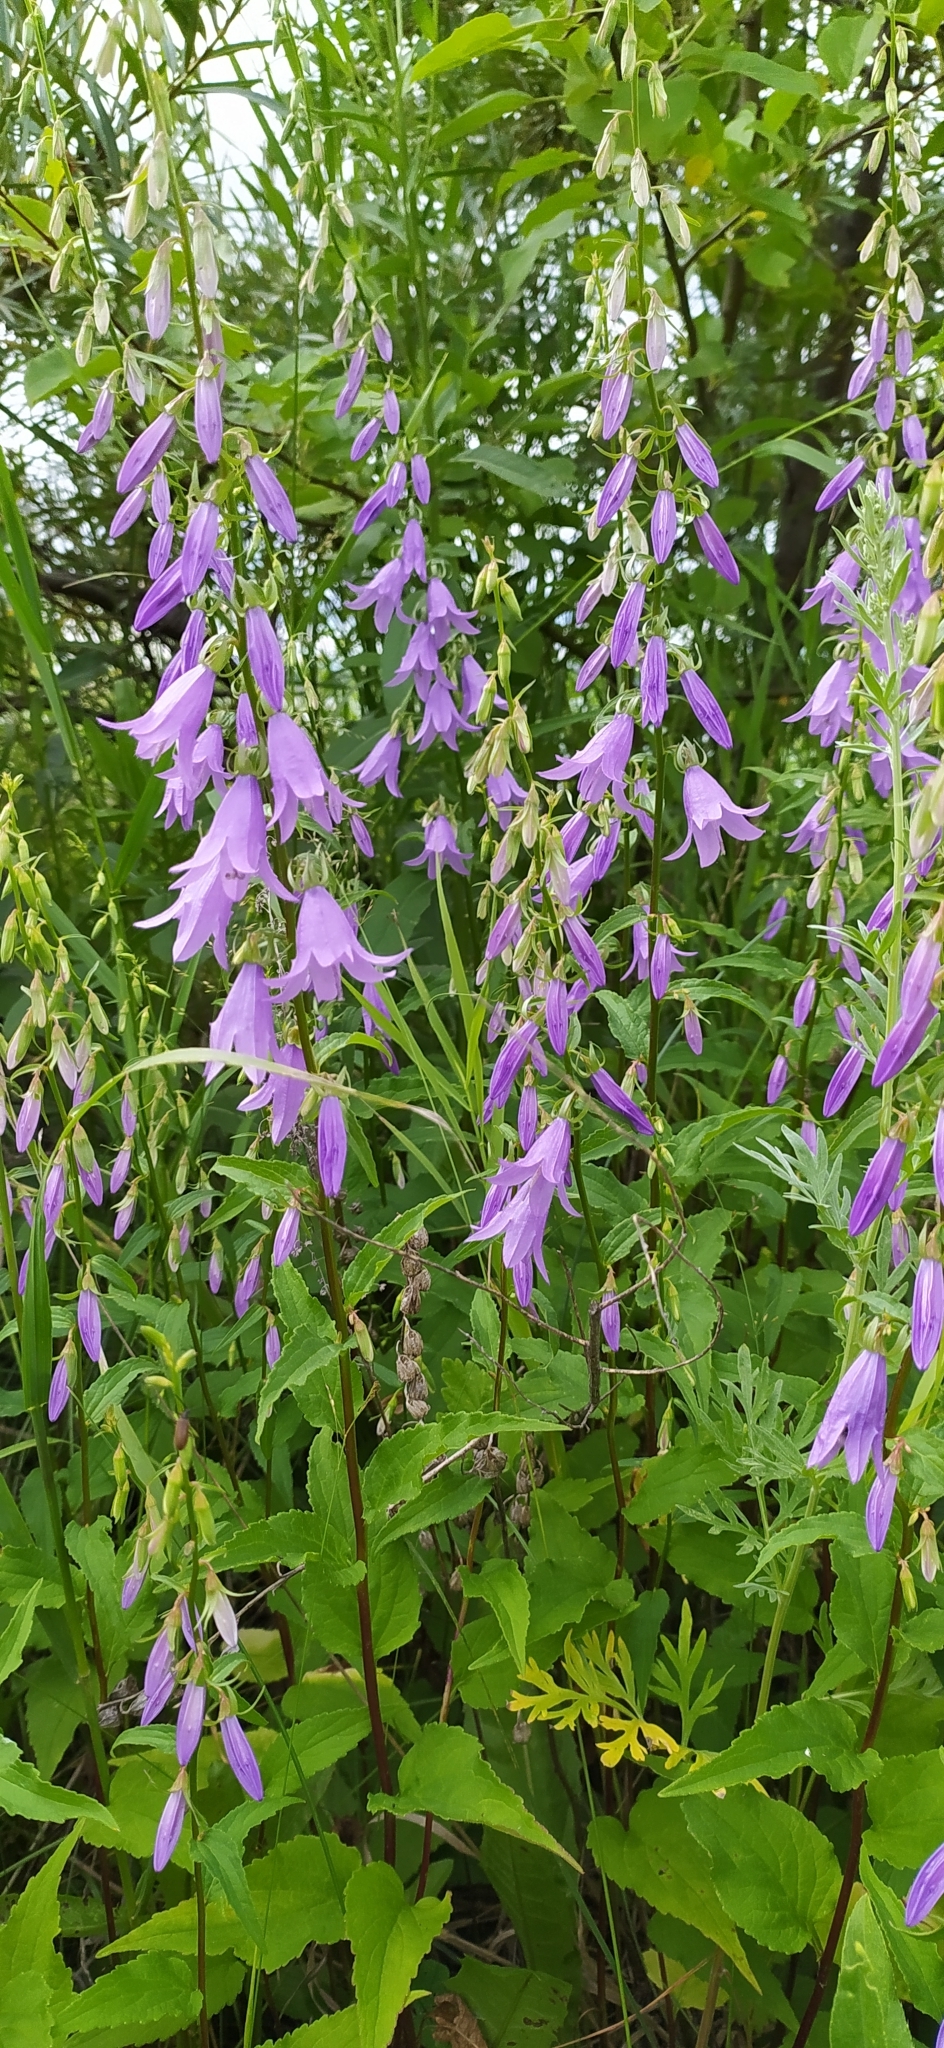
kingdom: Plantae
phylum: Tracheophyta
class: Magnoliopsida
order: Asterales
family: Campanulaceae
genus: Campanula
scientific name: Campanula rapunculoides
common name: Creeping bellflower
